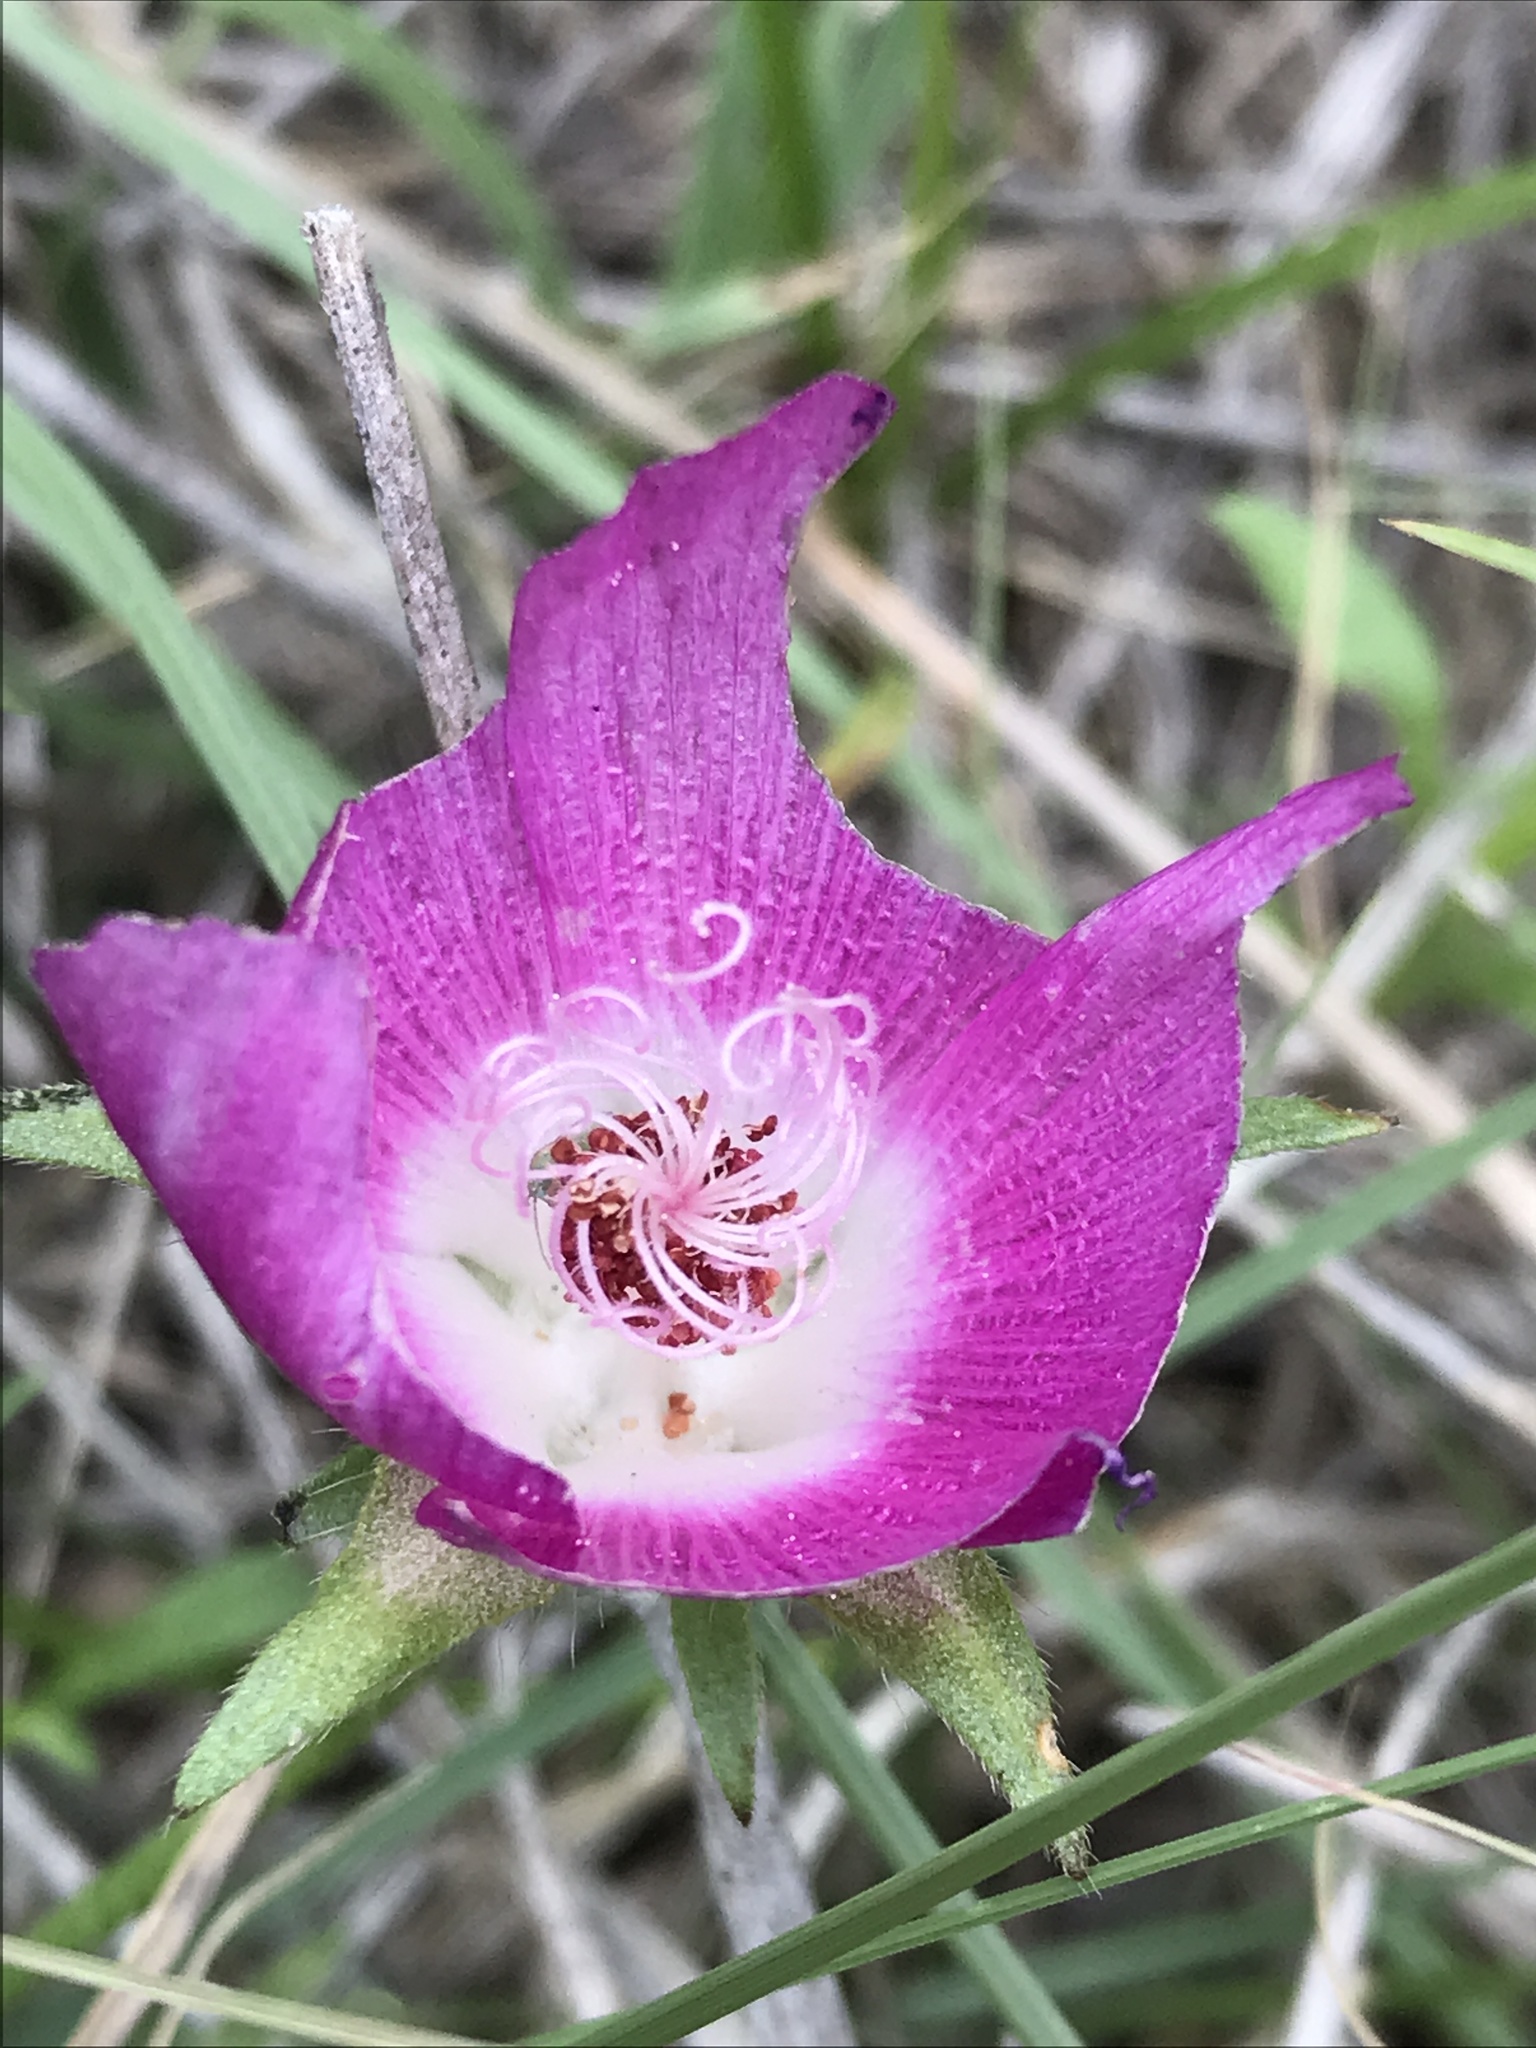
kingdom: Plantae
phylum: Tracheophyta
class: Magnoliopsida
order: Malvales
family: Malvaceae
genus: Callirhoe
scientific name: Callirhoe involucrata
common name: Purple poppy-mallow
